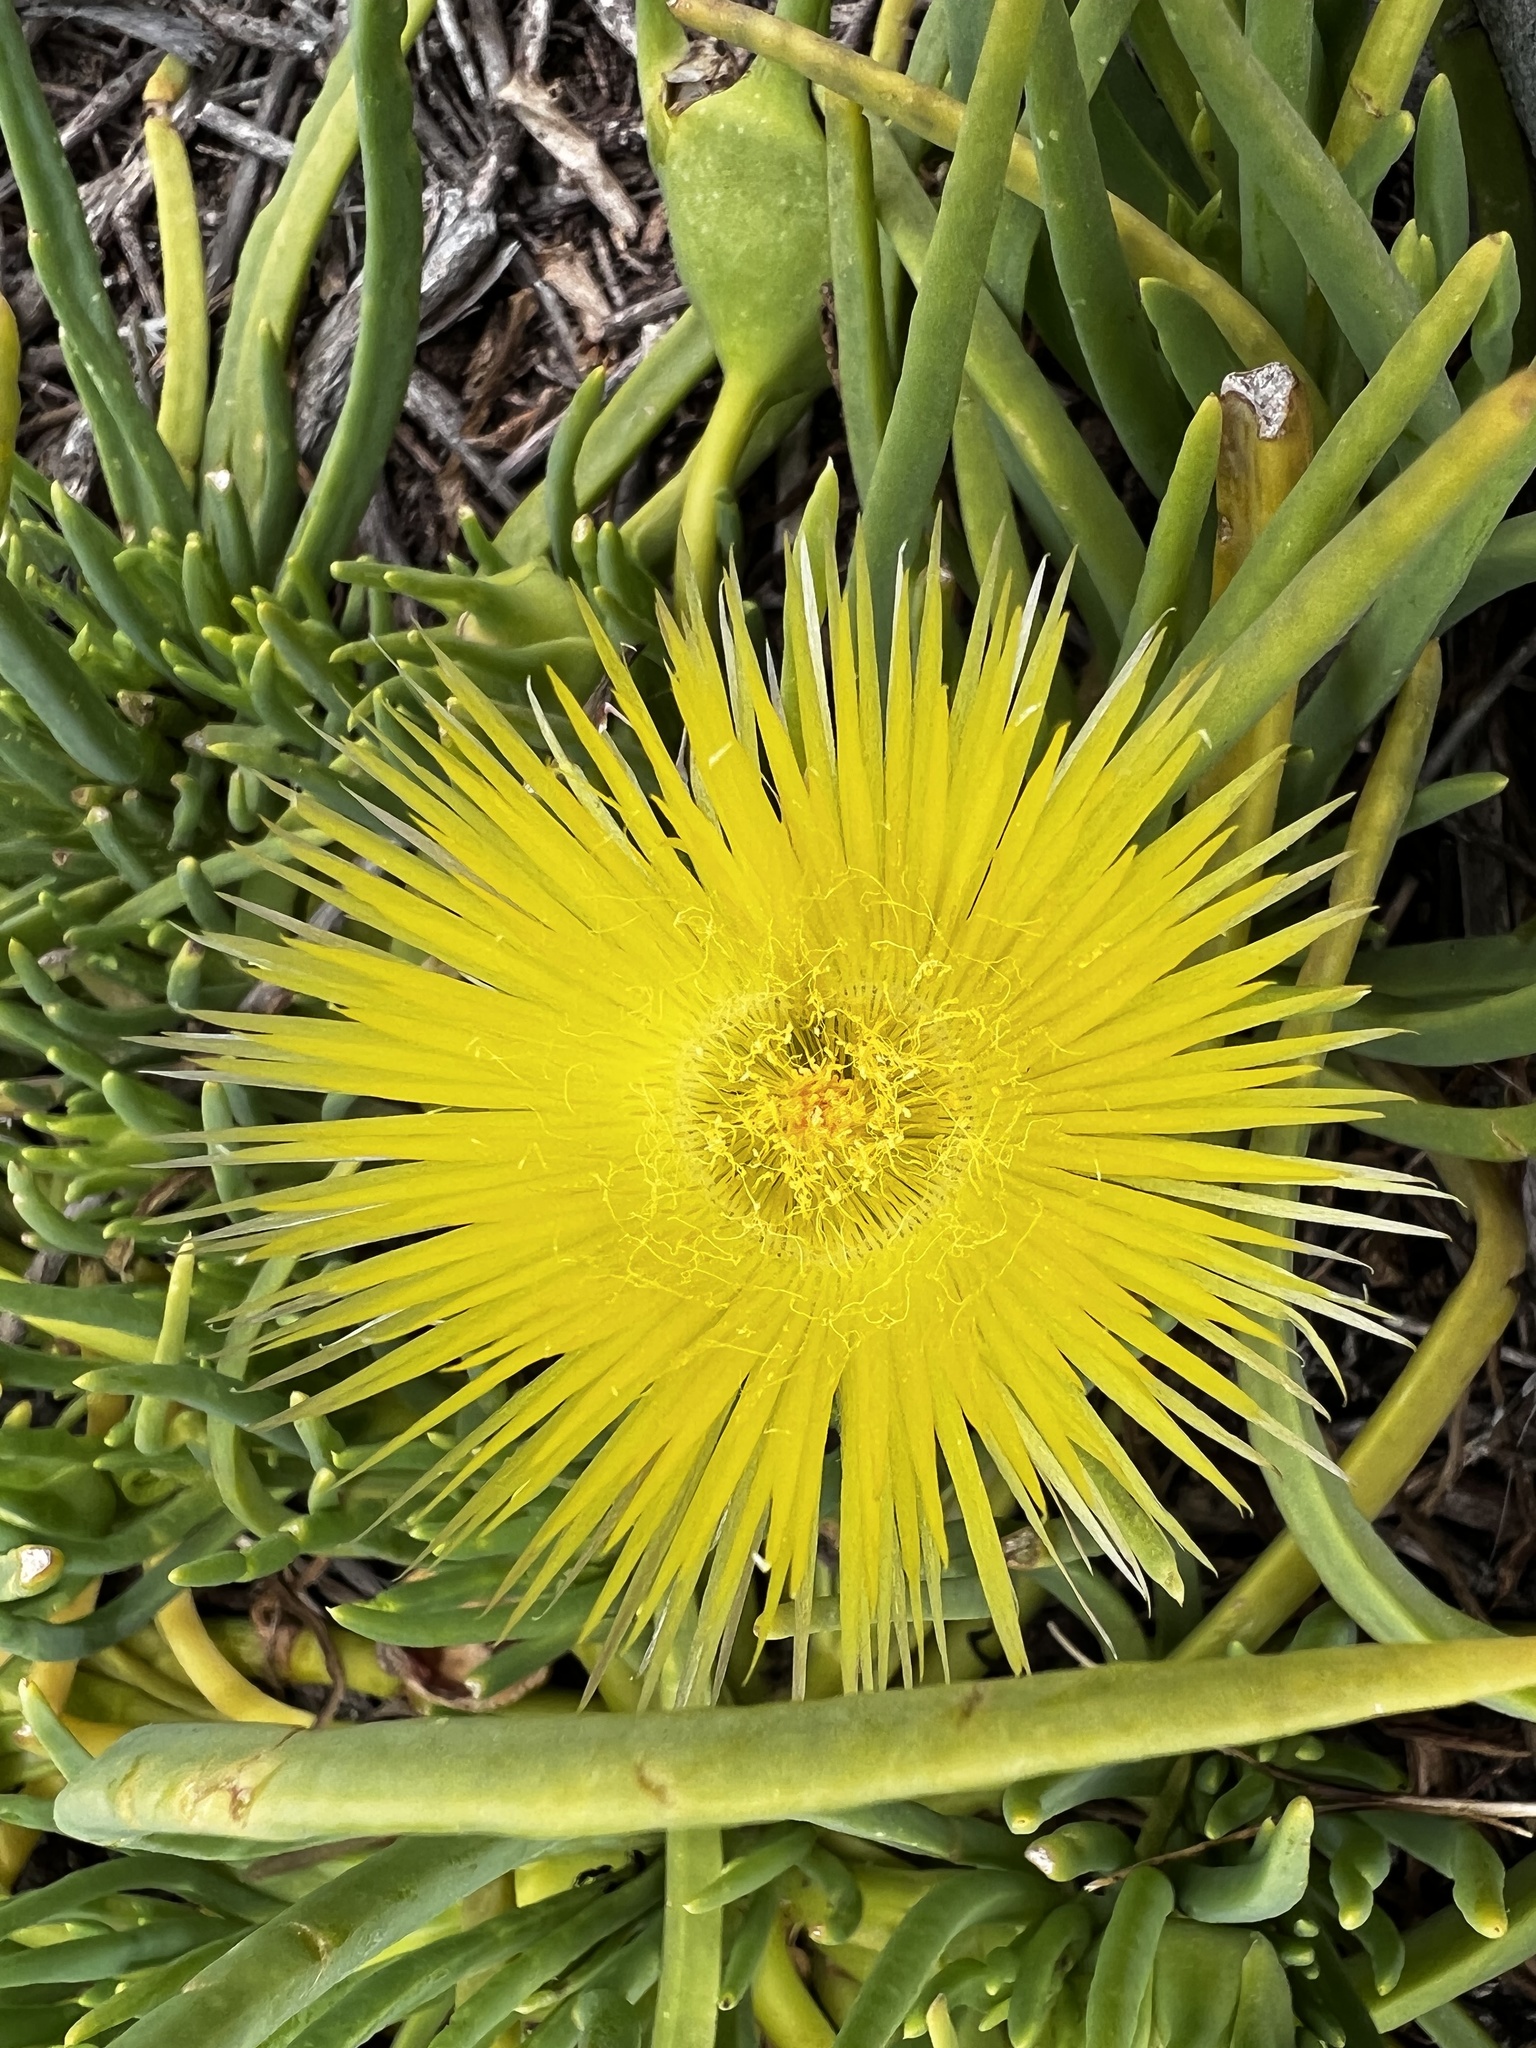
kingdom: Plantae
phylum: Tracheophyta
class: Magnoliopsida
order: Caryophyllales
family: Aizoaceae
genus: Conicosia
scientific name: Conicosia pugioniformis
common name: Narrow-leaved iceplant
